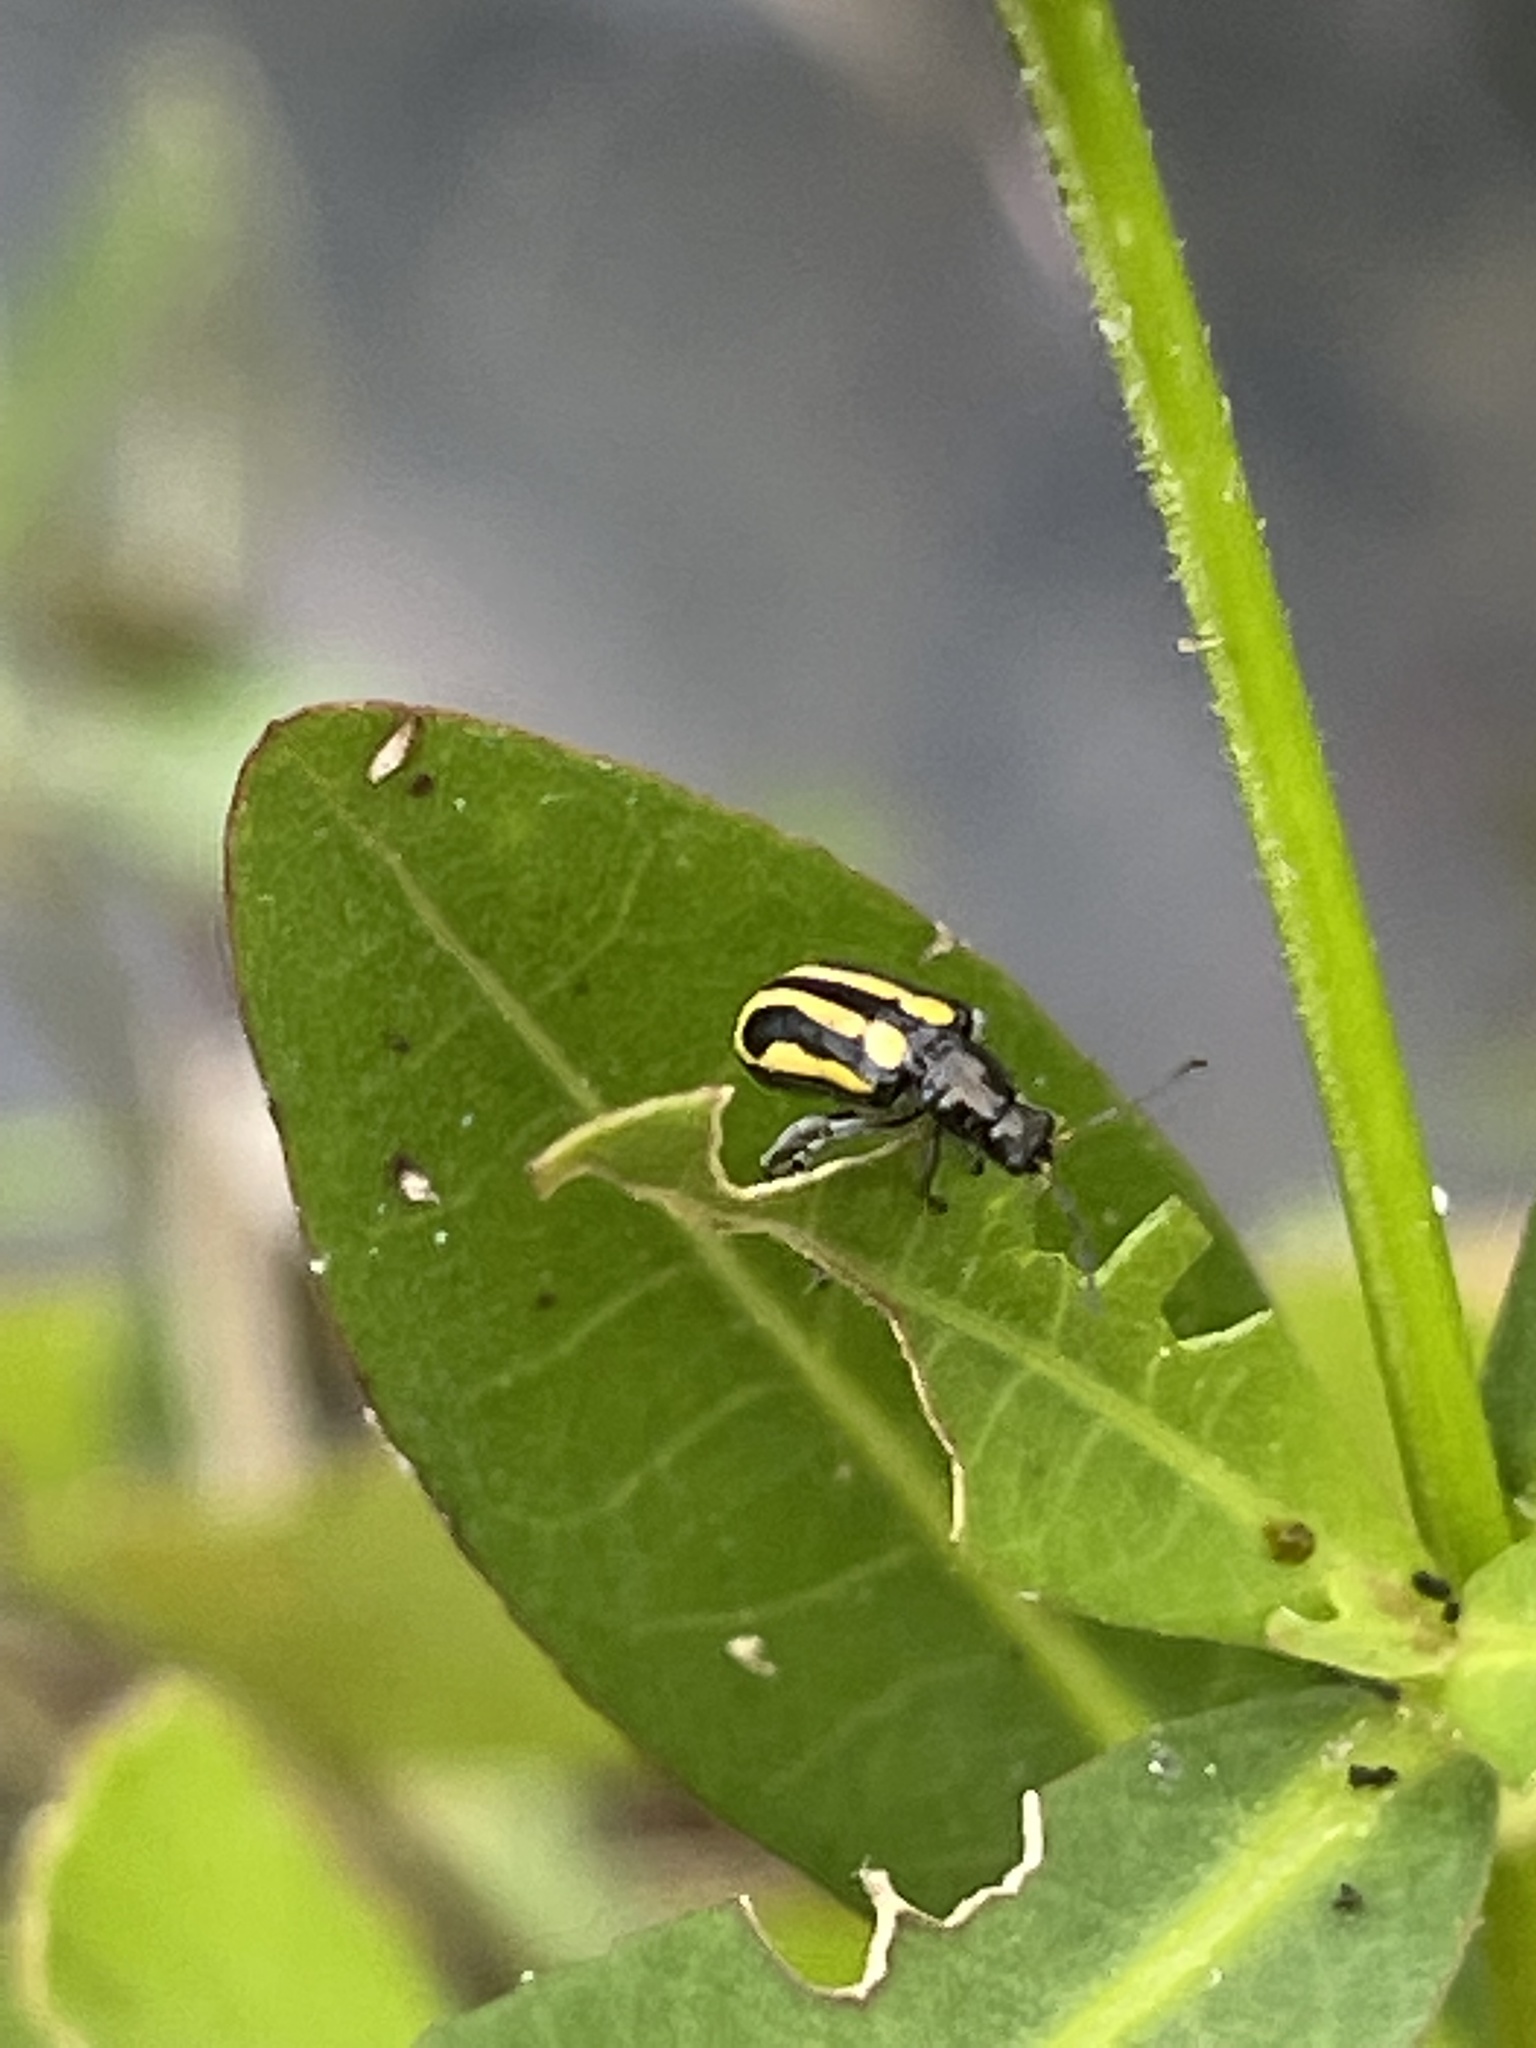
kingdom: Animalia
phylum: Arthropoda
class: Insecta
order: Coleoptera
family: Chrysomelidae
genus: Agasicles
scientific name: Agasicles hygrophila
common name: Alligatorweed flea beetle
